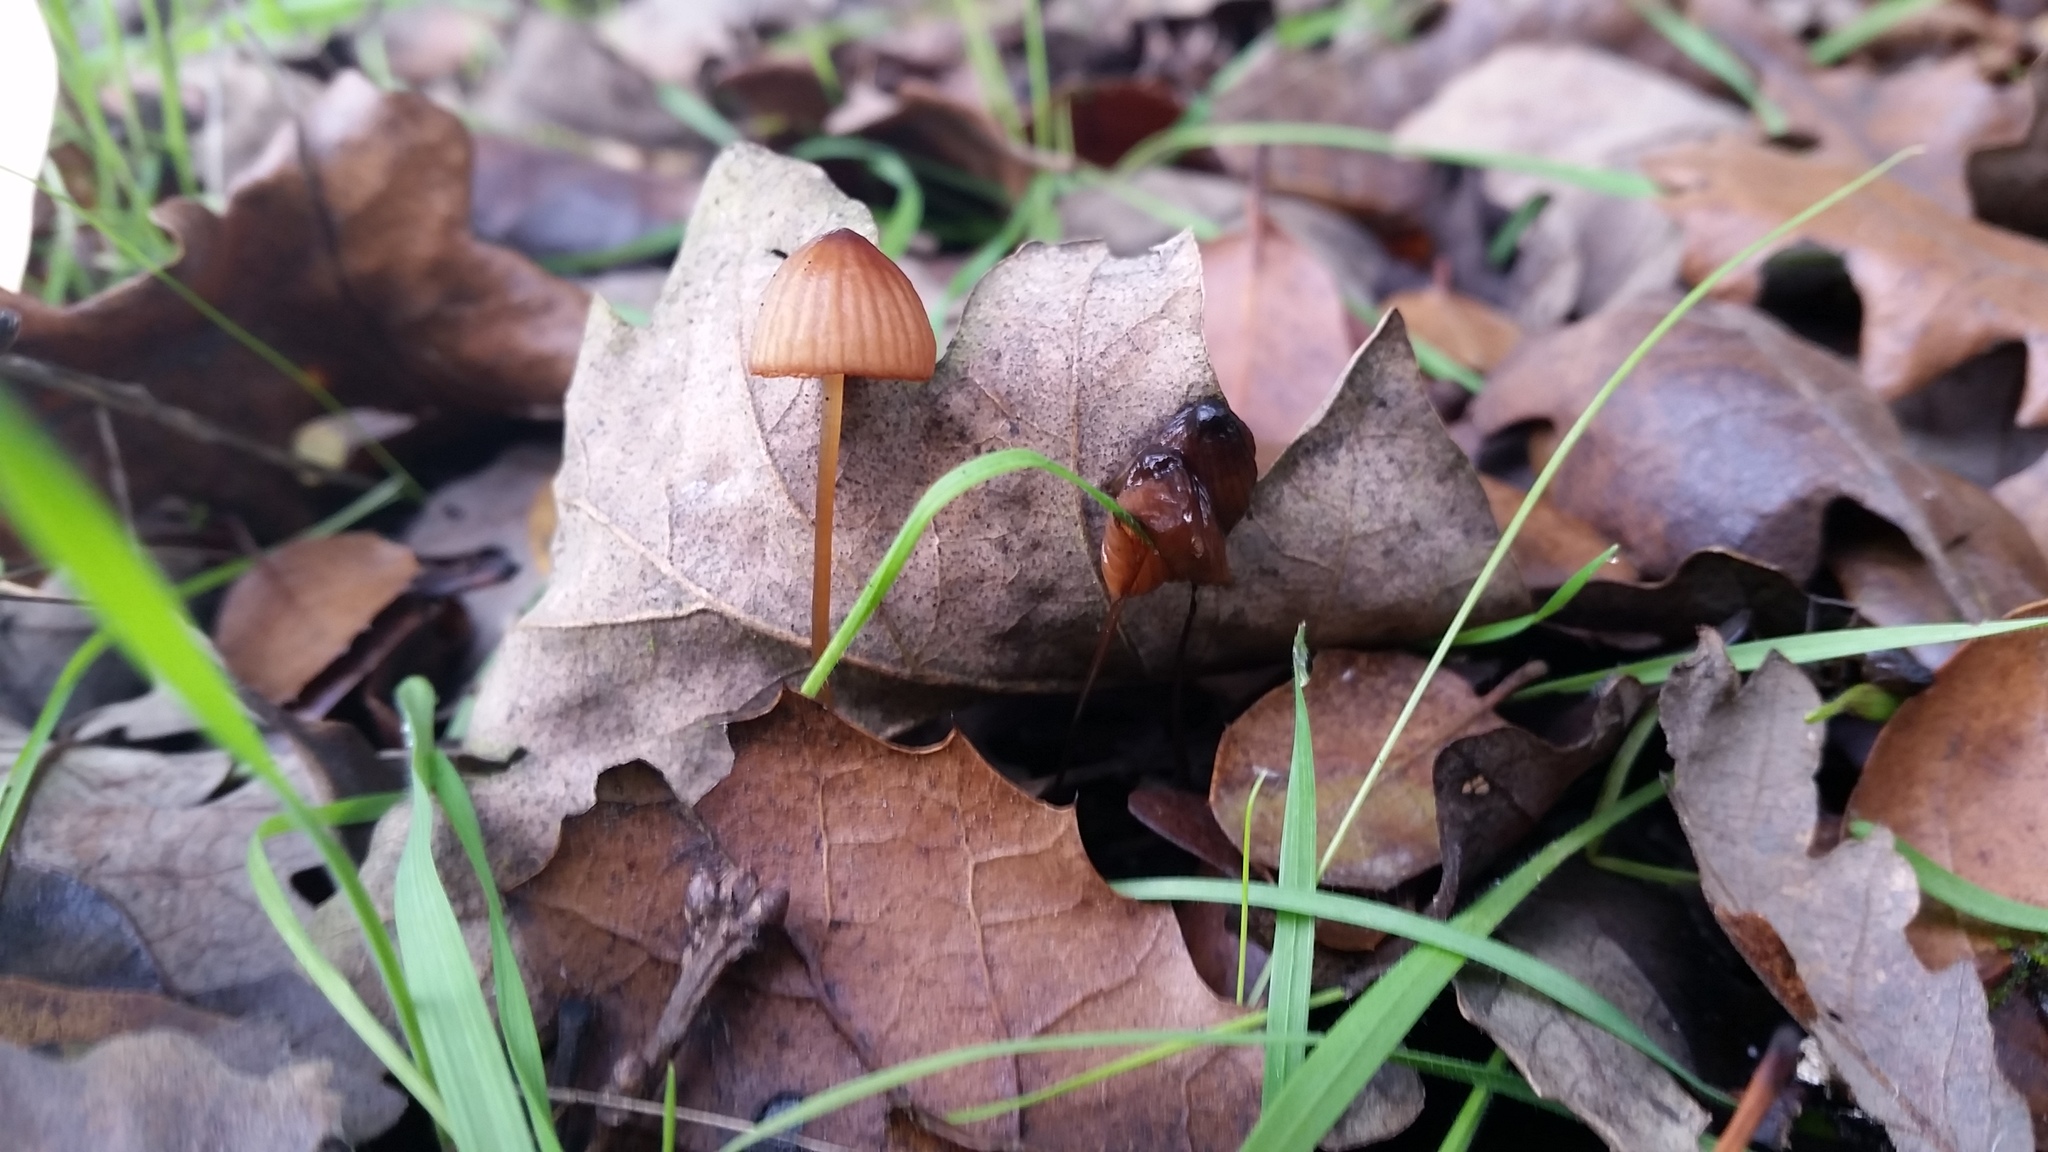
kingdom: Fungi
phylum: Basidiomycota
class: Agaricomycetes
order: Agaricales
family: Mycenaceae
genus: Mycena
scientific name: Mycena
